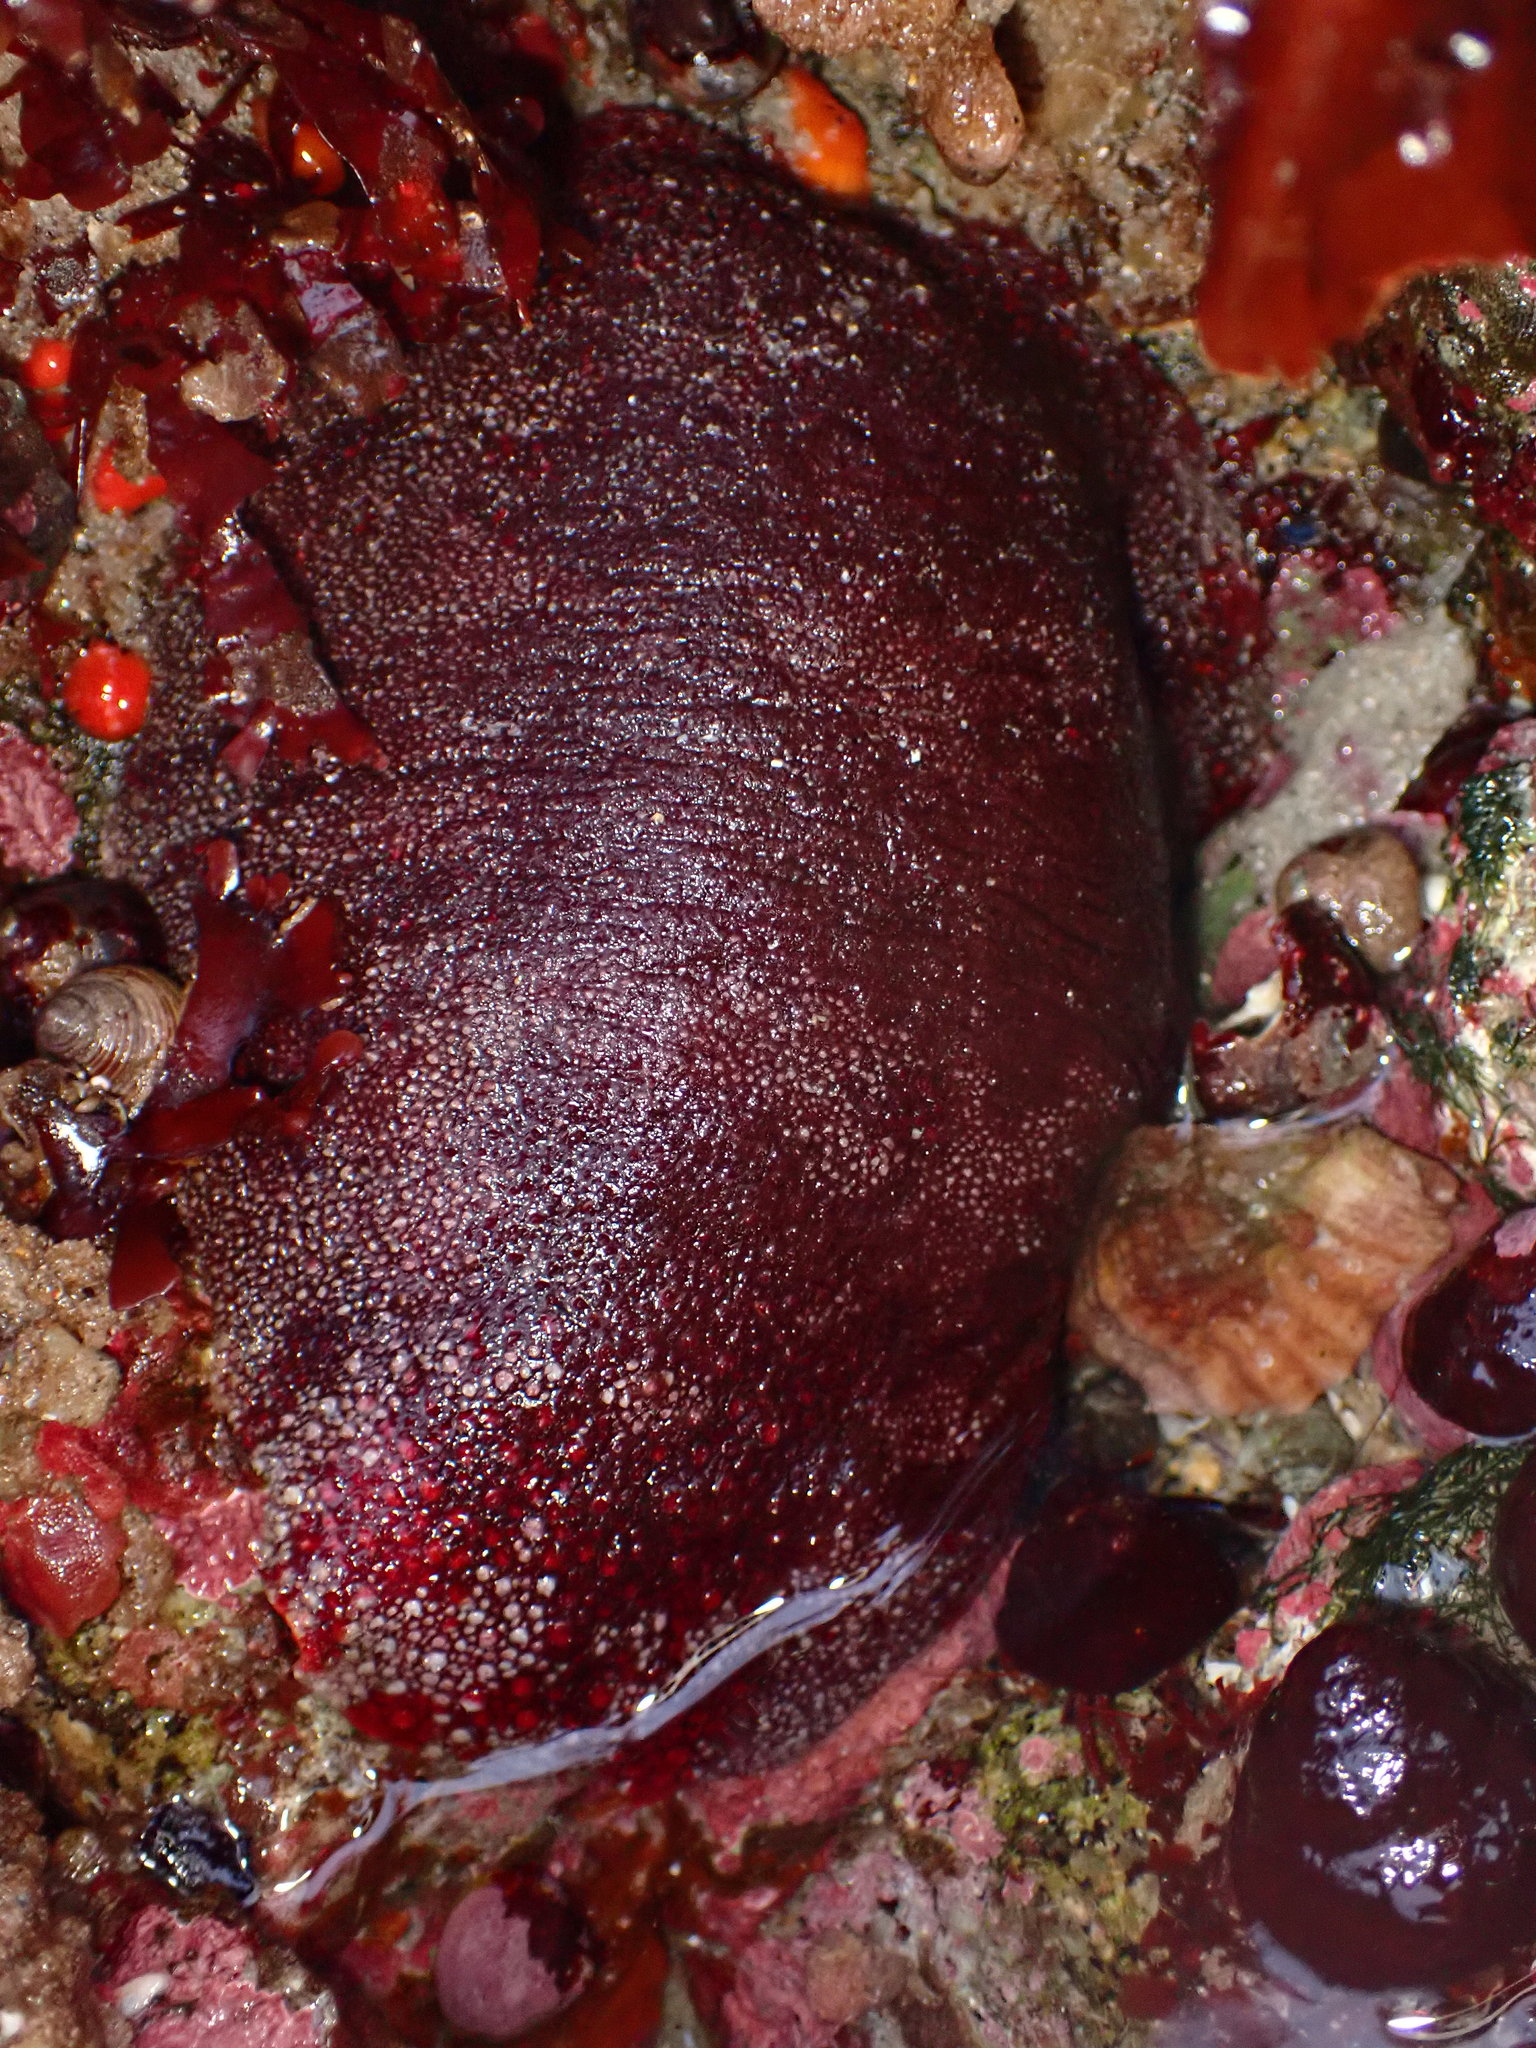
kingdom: Animalia
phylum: Mollusca
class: Polyplacophora
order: Chitonida
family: Acanthochitonidae
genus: Cryptochiton
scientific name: Cryptochiton stelleri
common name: Giant pacific chiton
